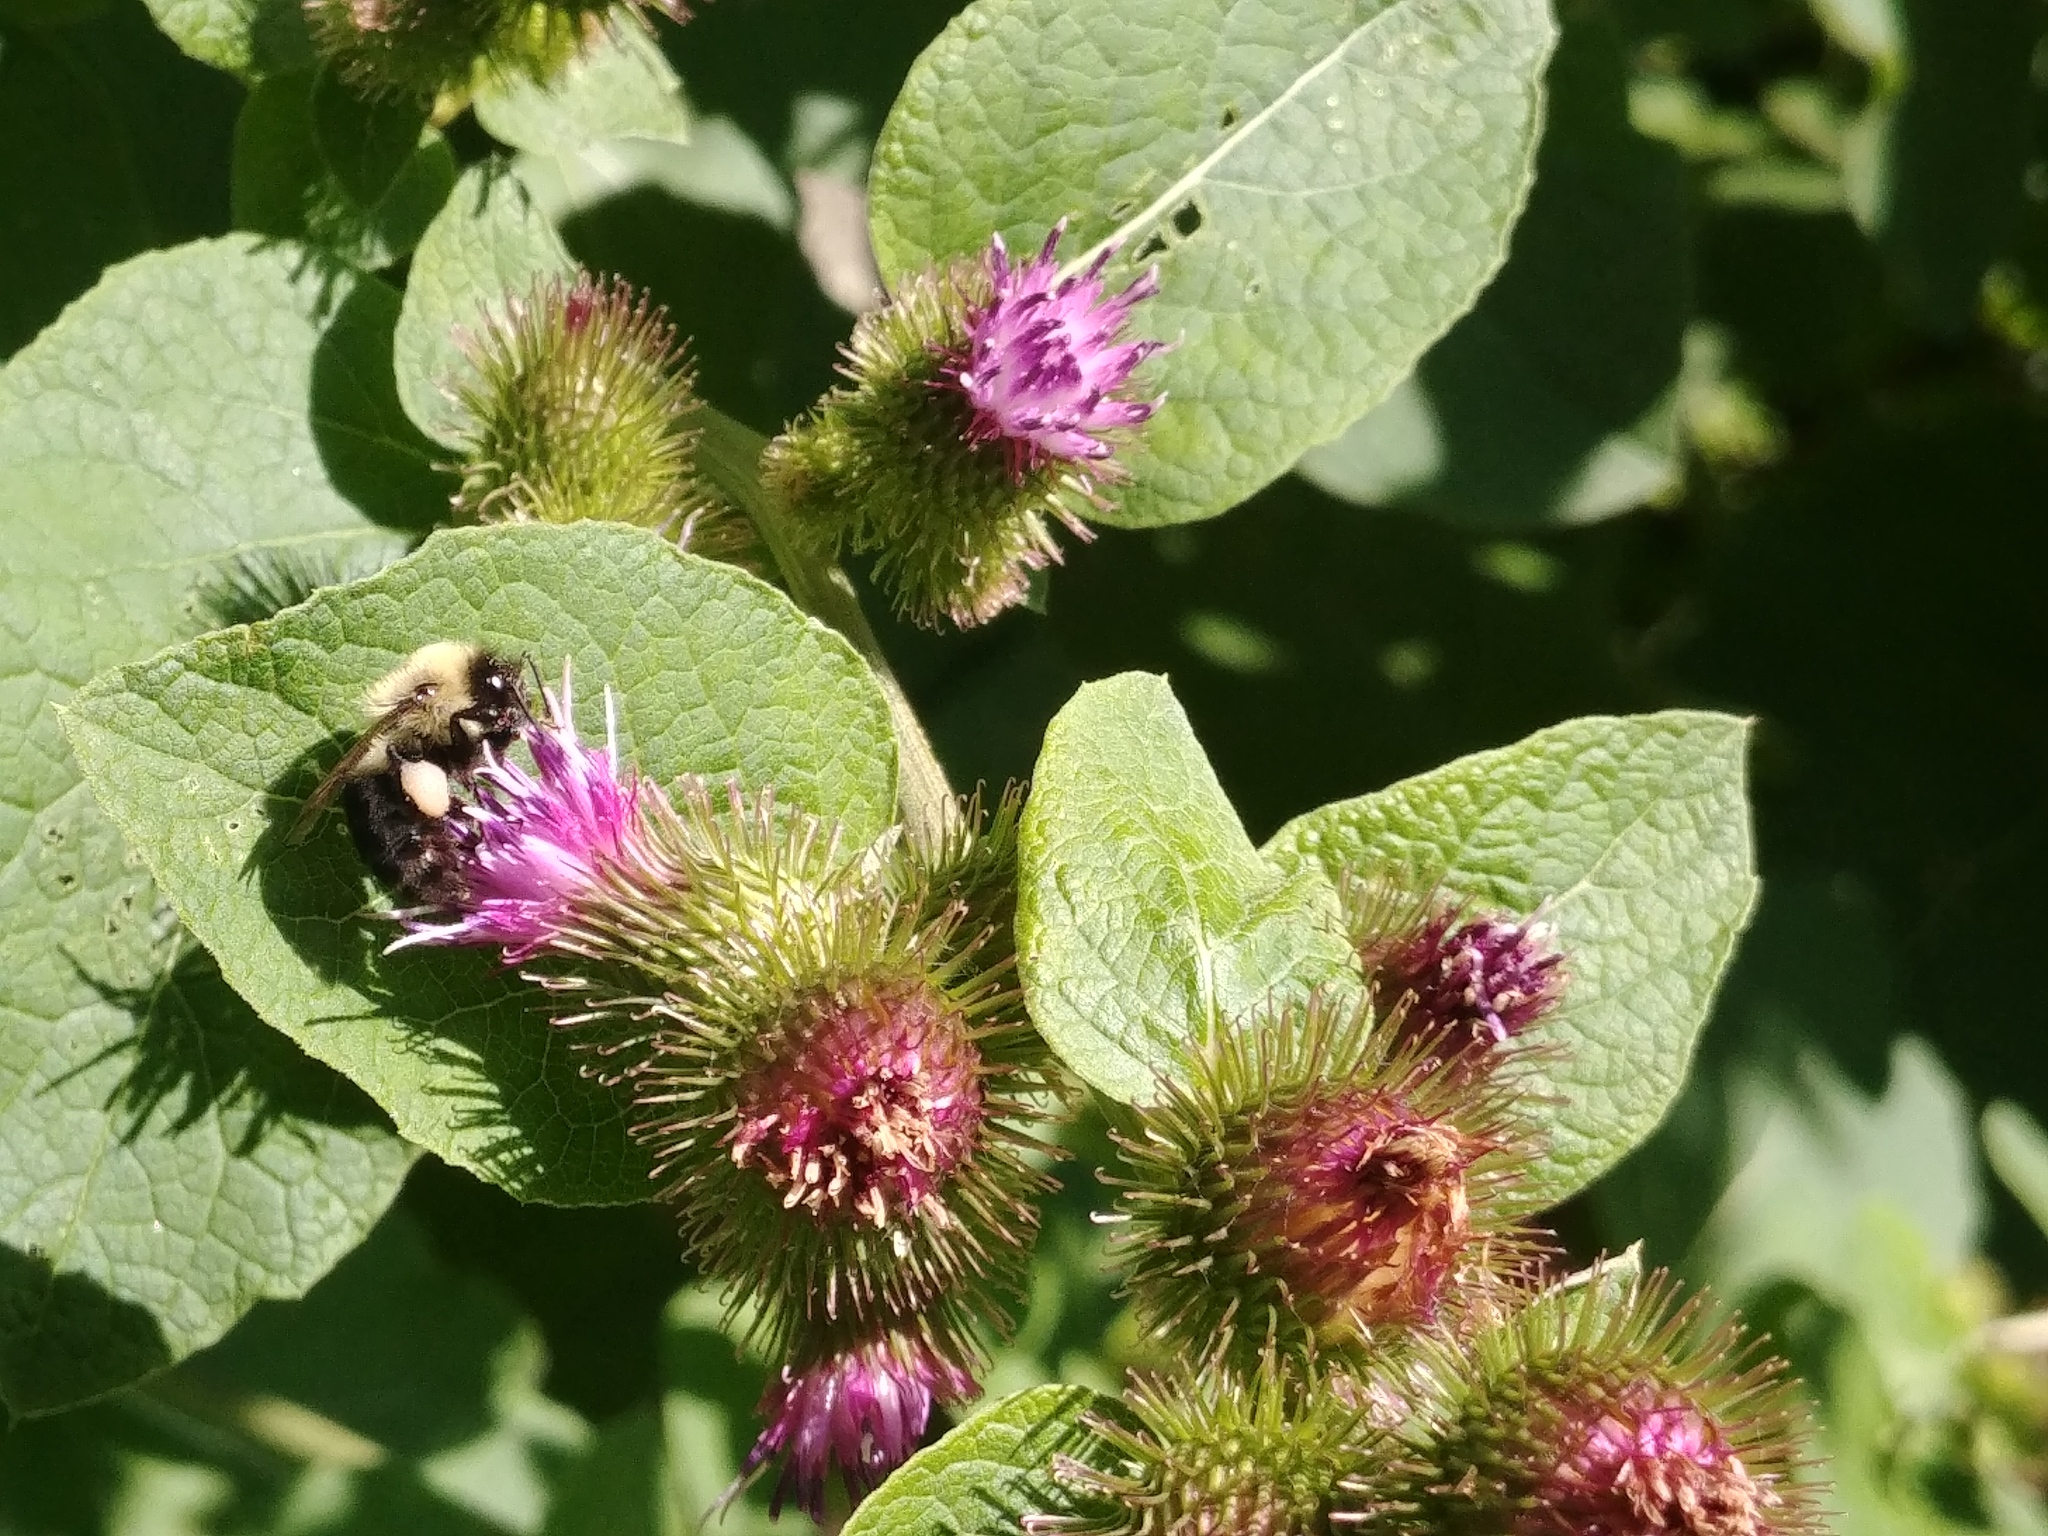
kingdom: Animalia
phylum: Arthropoda
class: Insecta
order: Hymenoptera
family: Apidae
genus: Bombus
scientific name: Bombus impatiens
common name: Common eastern bumble bee
